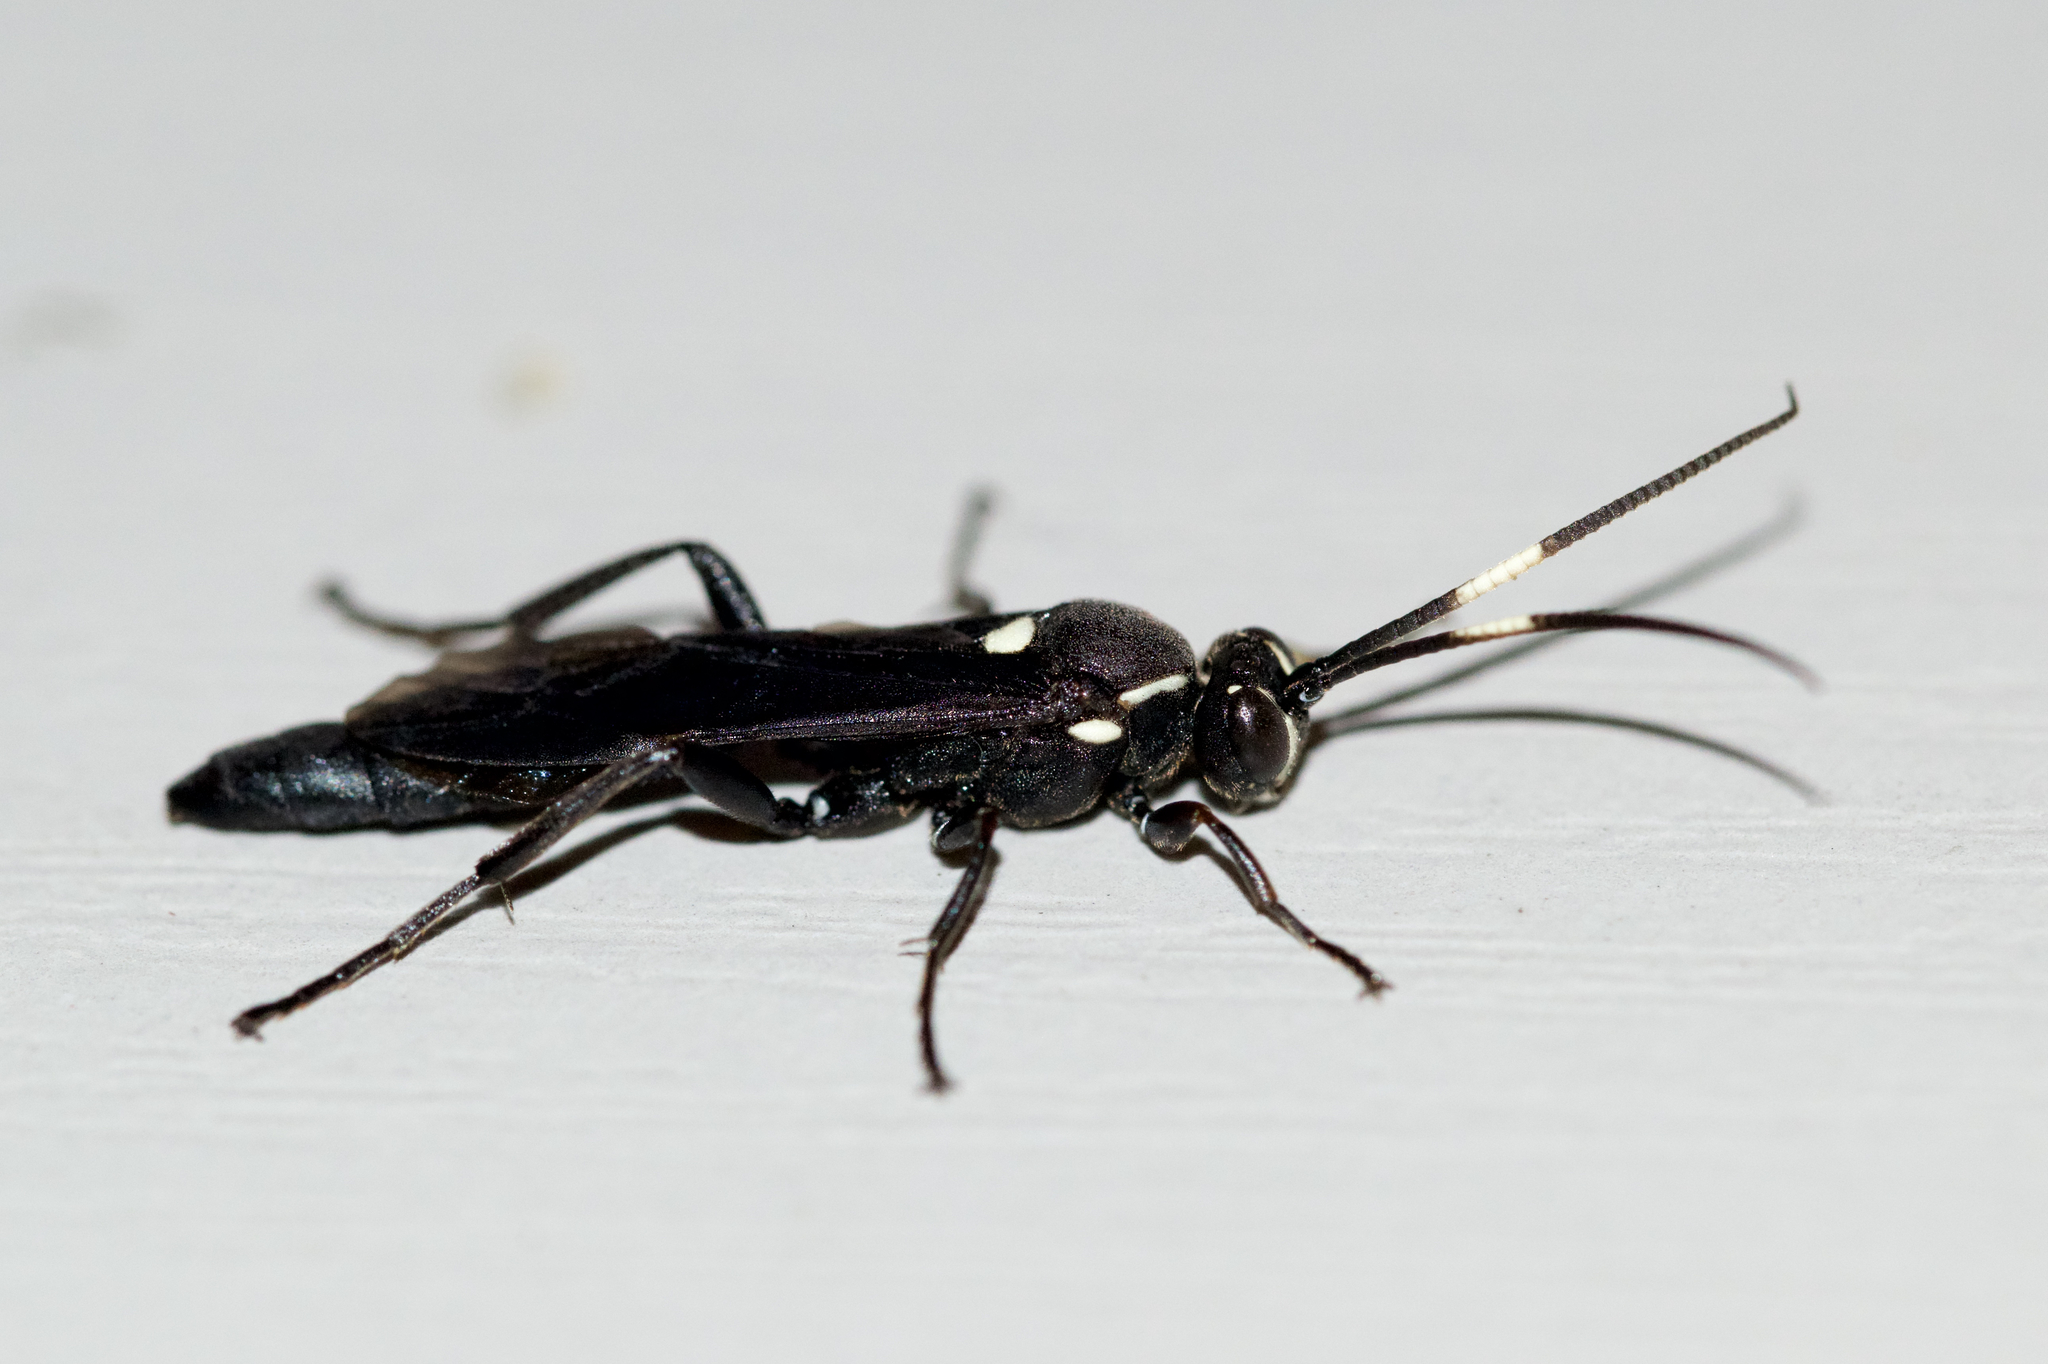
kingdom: Animalia
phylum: Arthropoda
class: Insecta
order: Hymenoptera
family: Ichneumonidae
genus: Coelichneumon
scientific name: Coelichneumon vitalis
